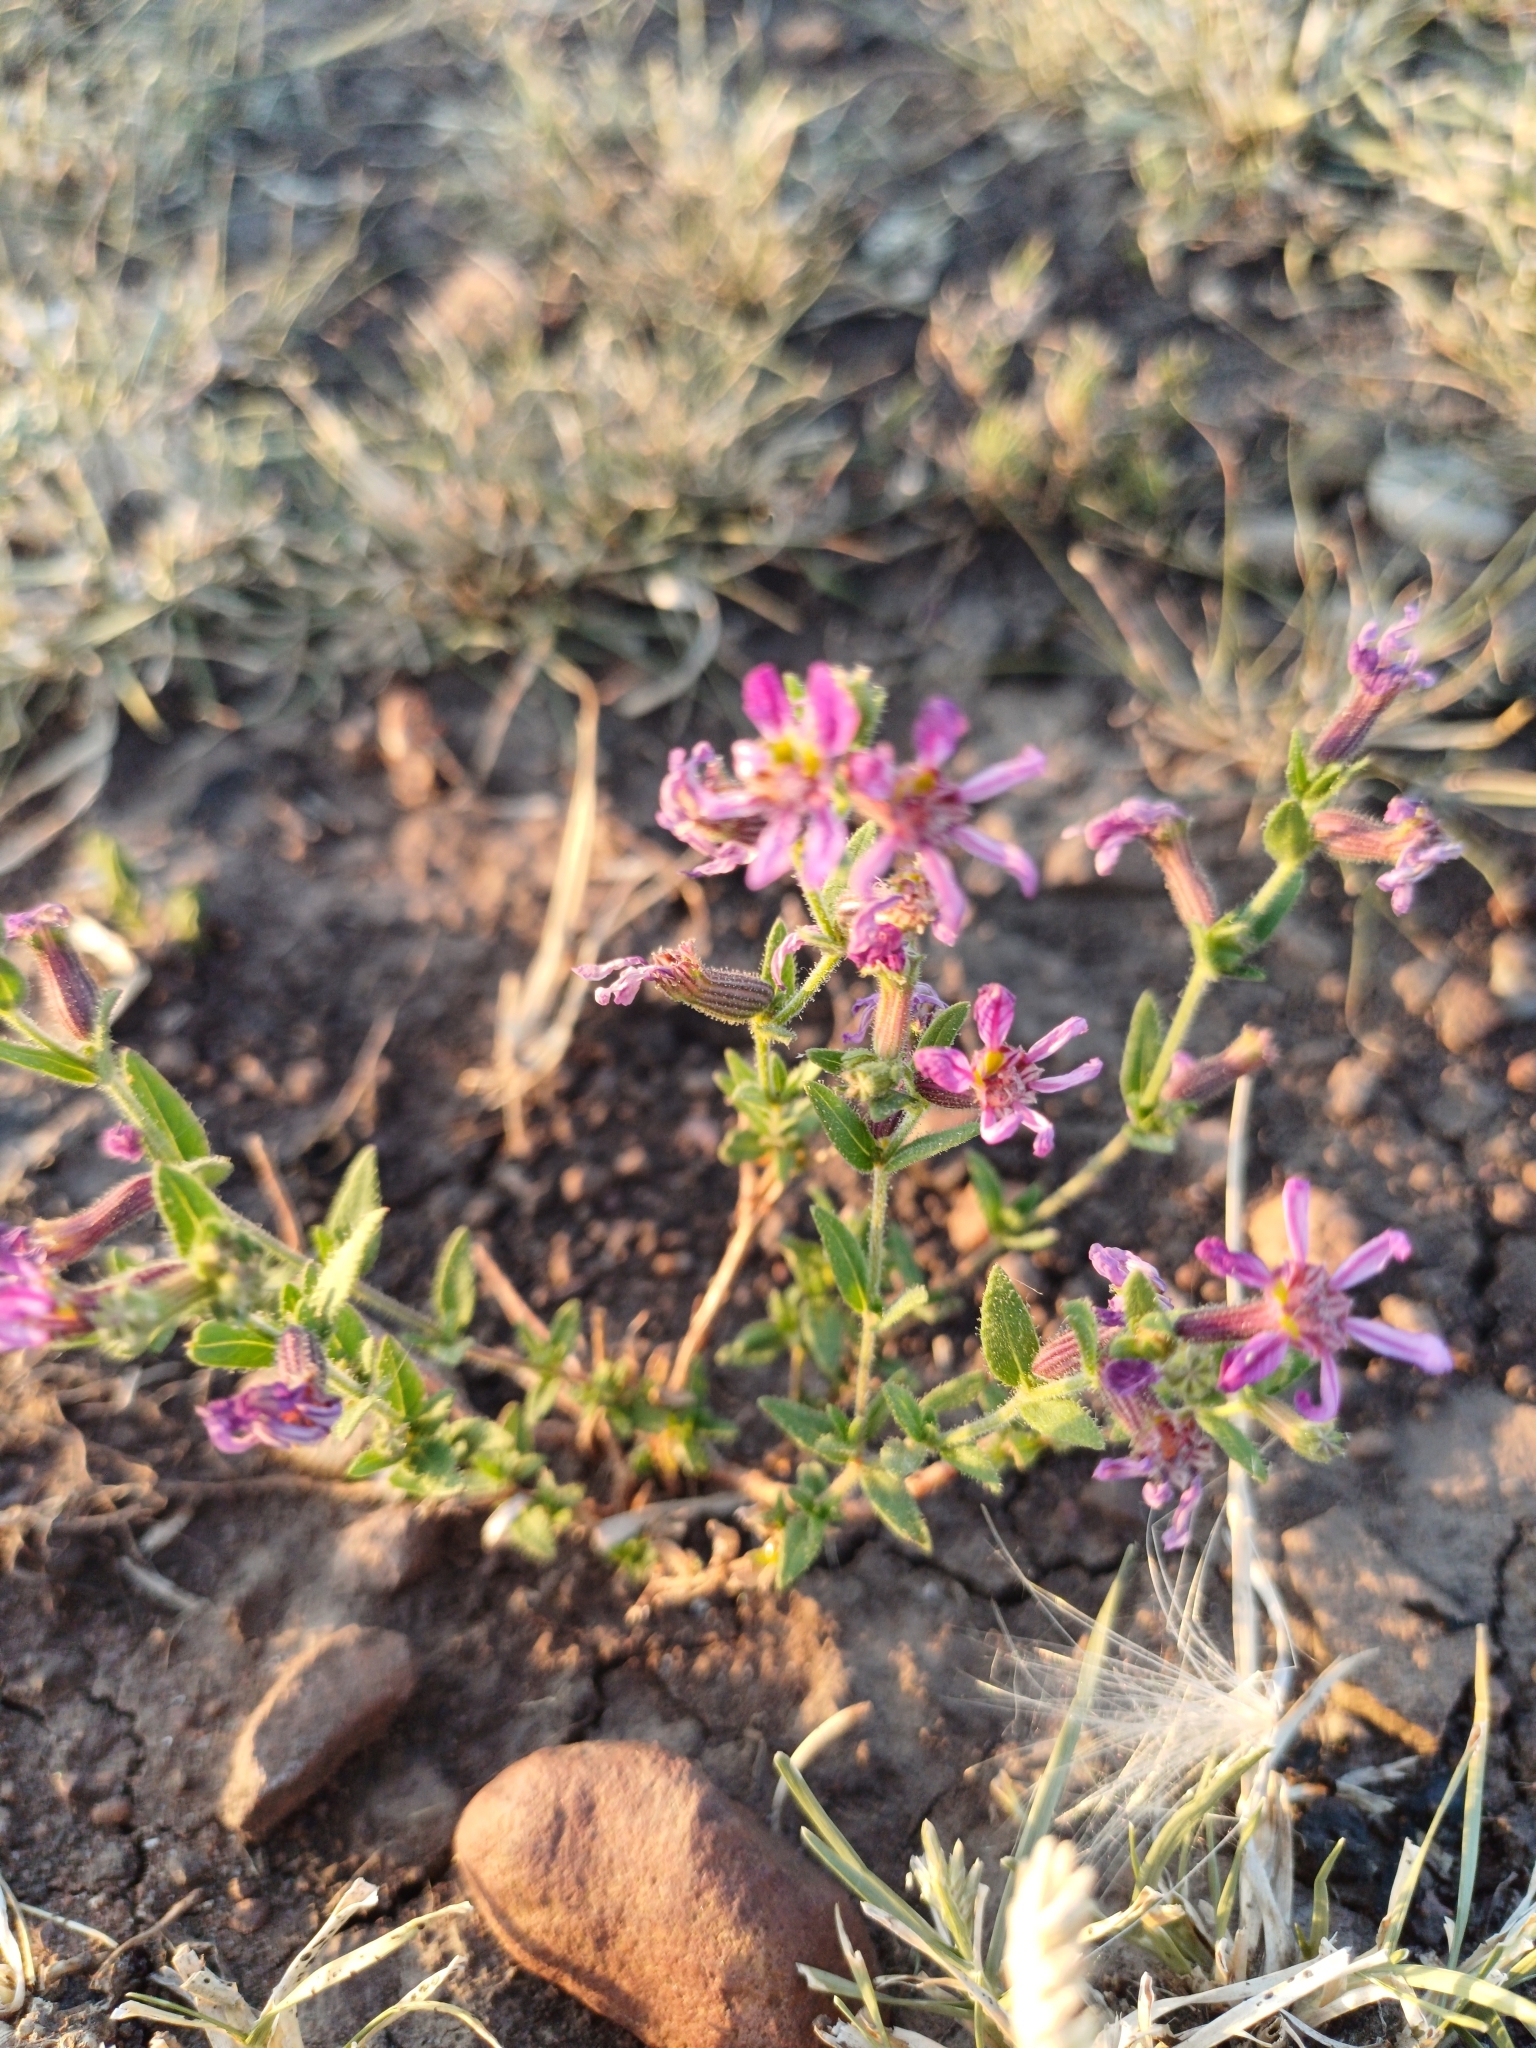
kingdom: Plantae
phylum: Tracheophyta
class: Magnoliopsida
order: Myrtales
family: Lythraceae
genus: Cuphea
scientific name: Cuphea glutinosa
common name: Sticky waxweed
